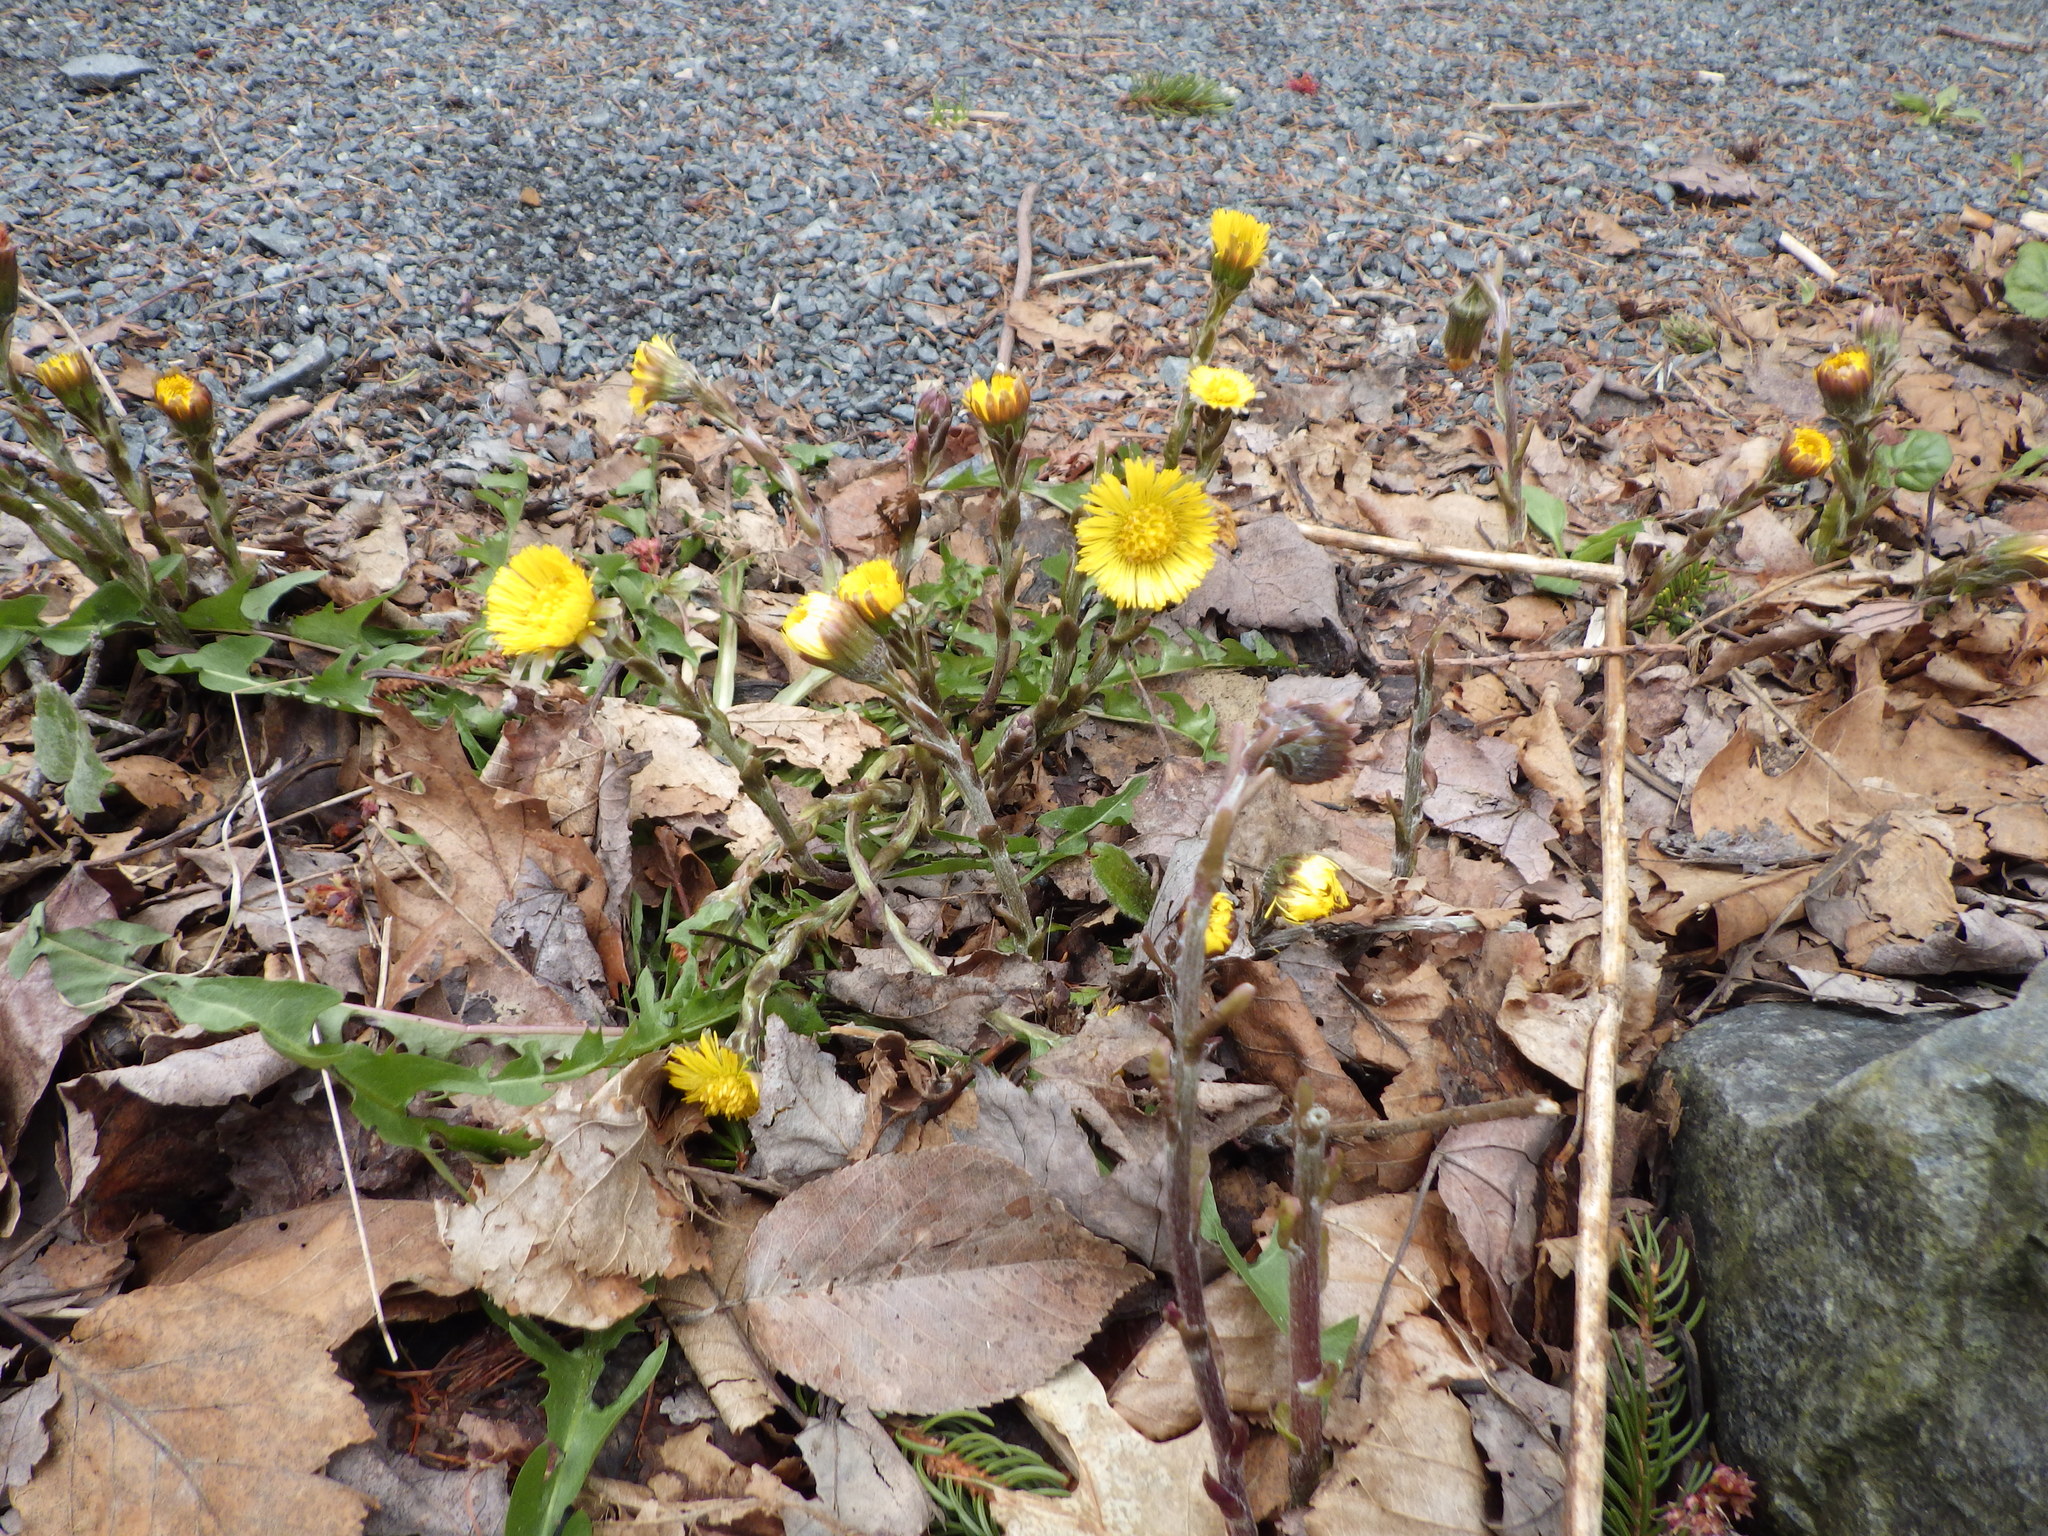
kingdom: Plantae
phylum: Tracheophyta
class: Magnoliopsida
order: Asterales
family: Asteraceae
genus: Tussilago
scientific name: Tussilago farfara
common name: Coltsfoot
